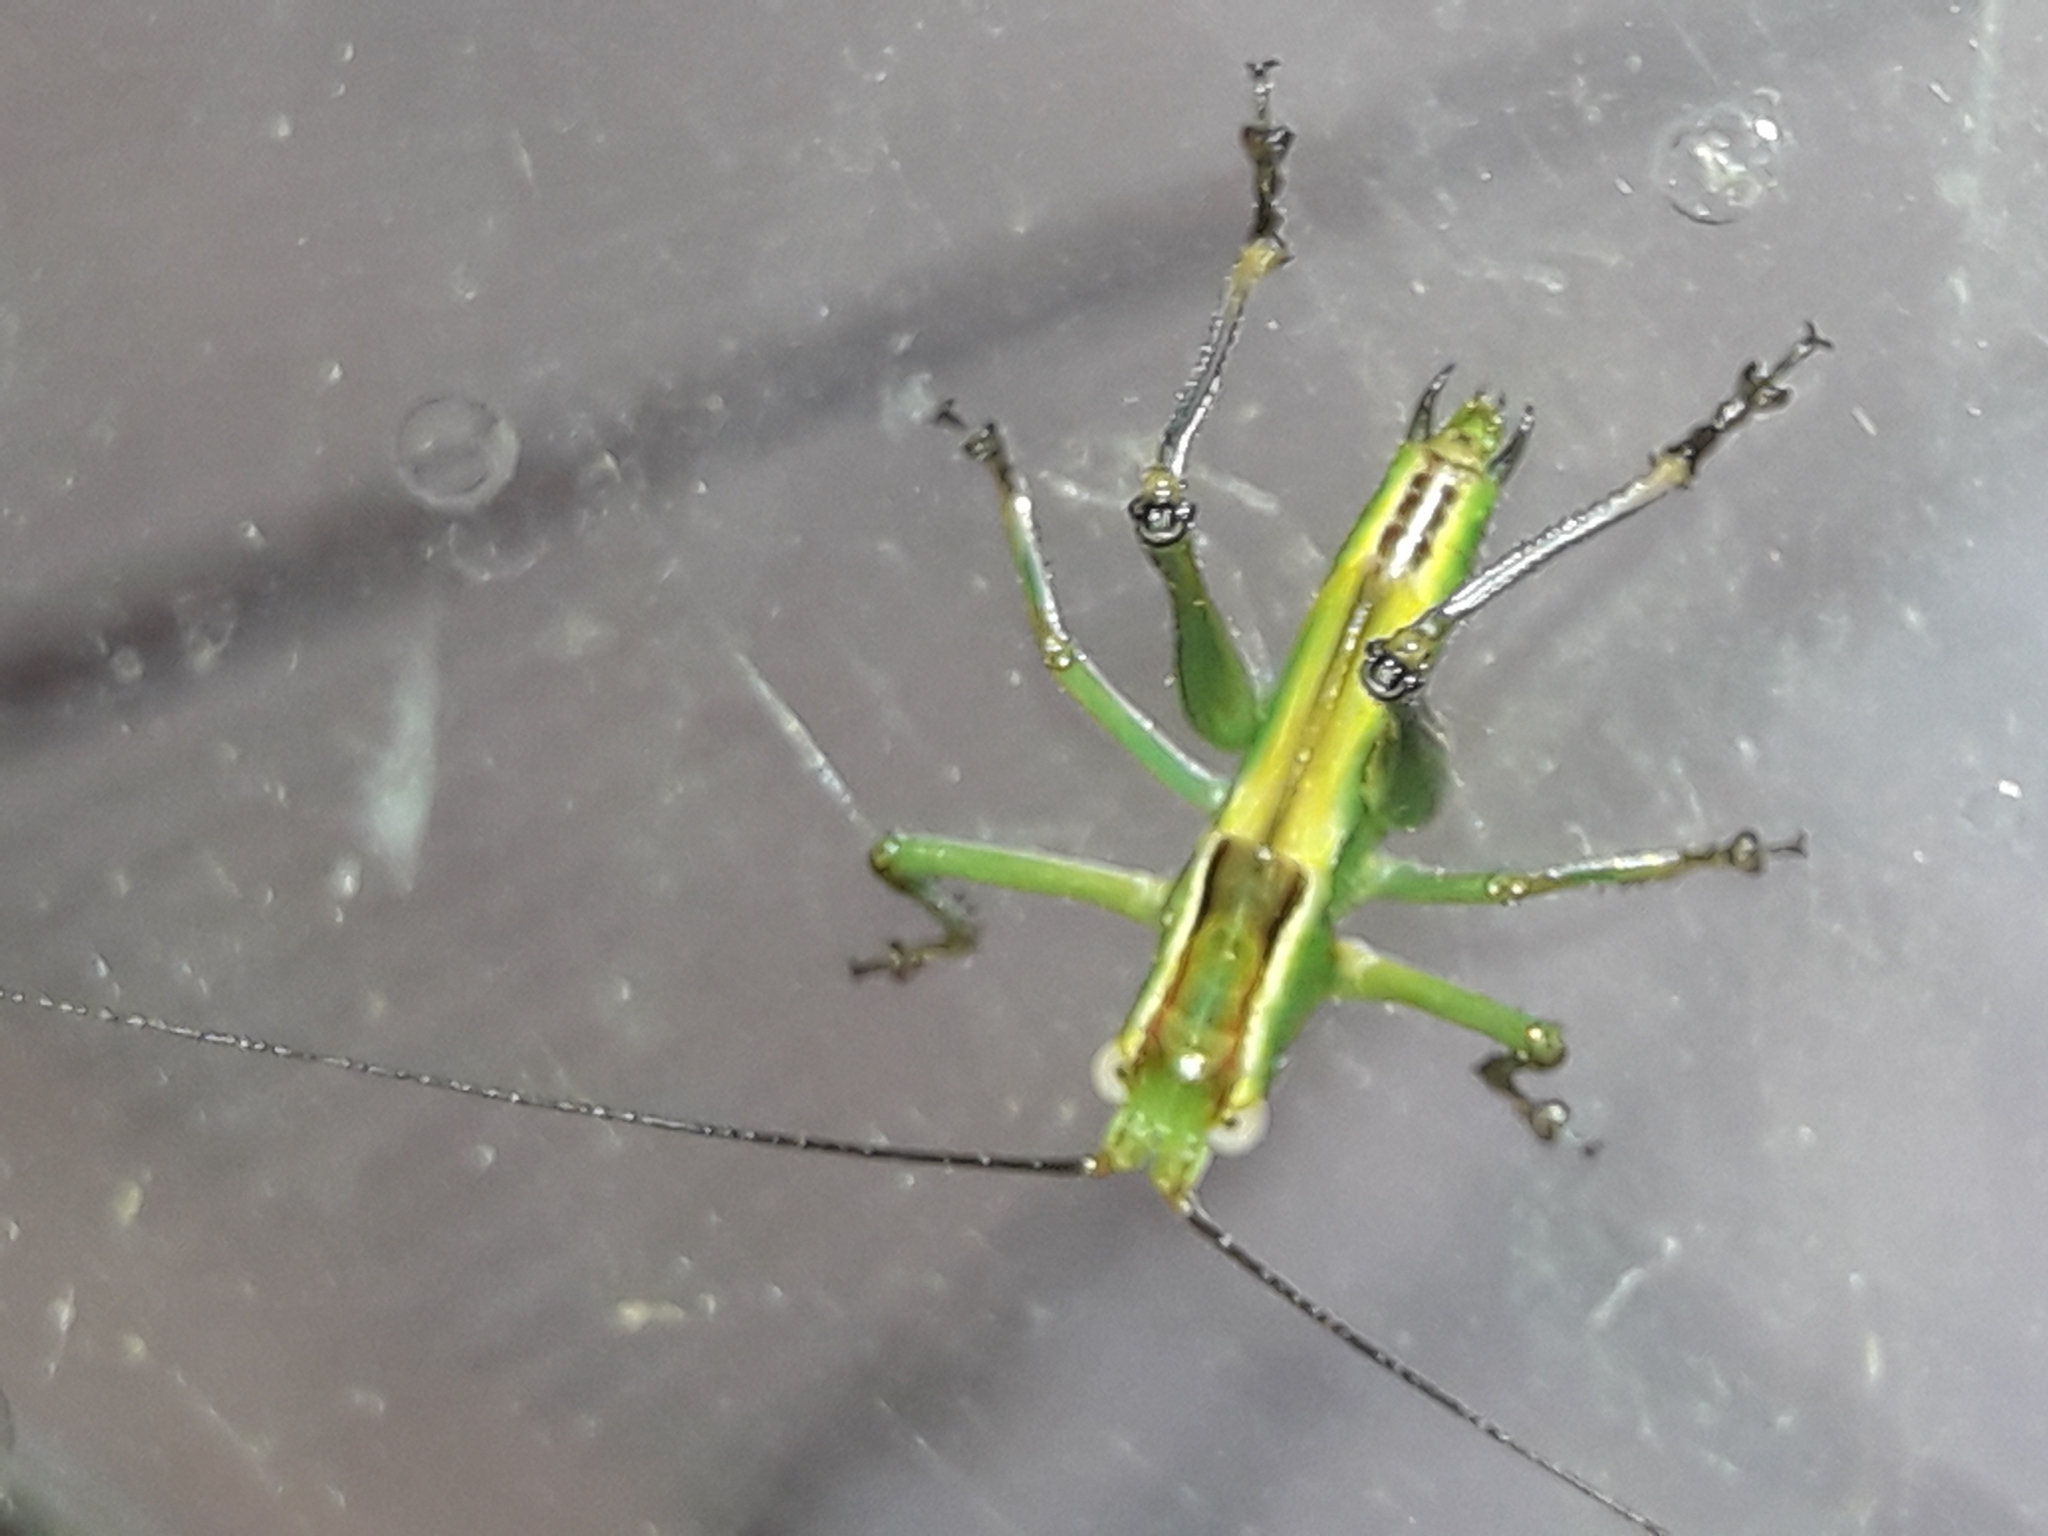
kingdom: Animalia
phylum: Arthropoda
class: Insecta
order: Orthoptera
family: Tettigoniidae
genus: Conocephalomima
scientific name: Conocephalomima barameda
